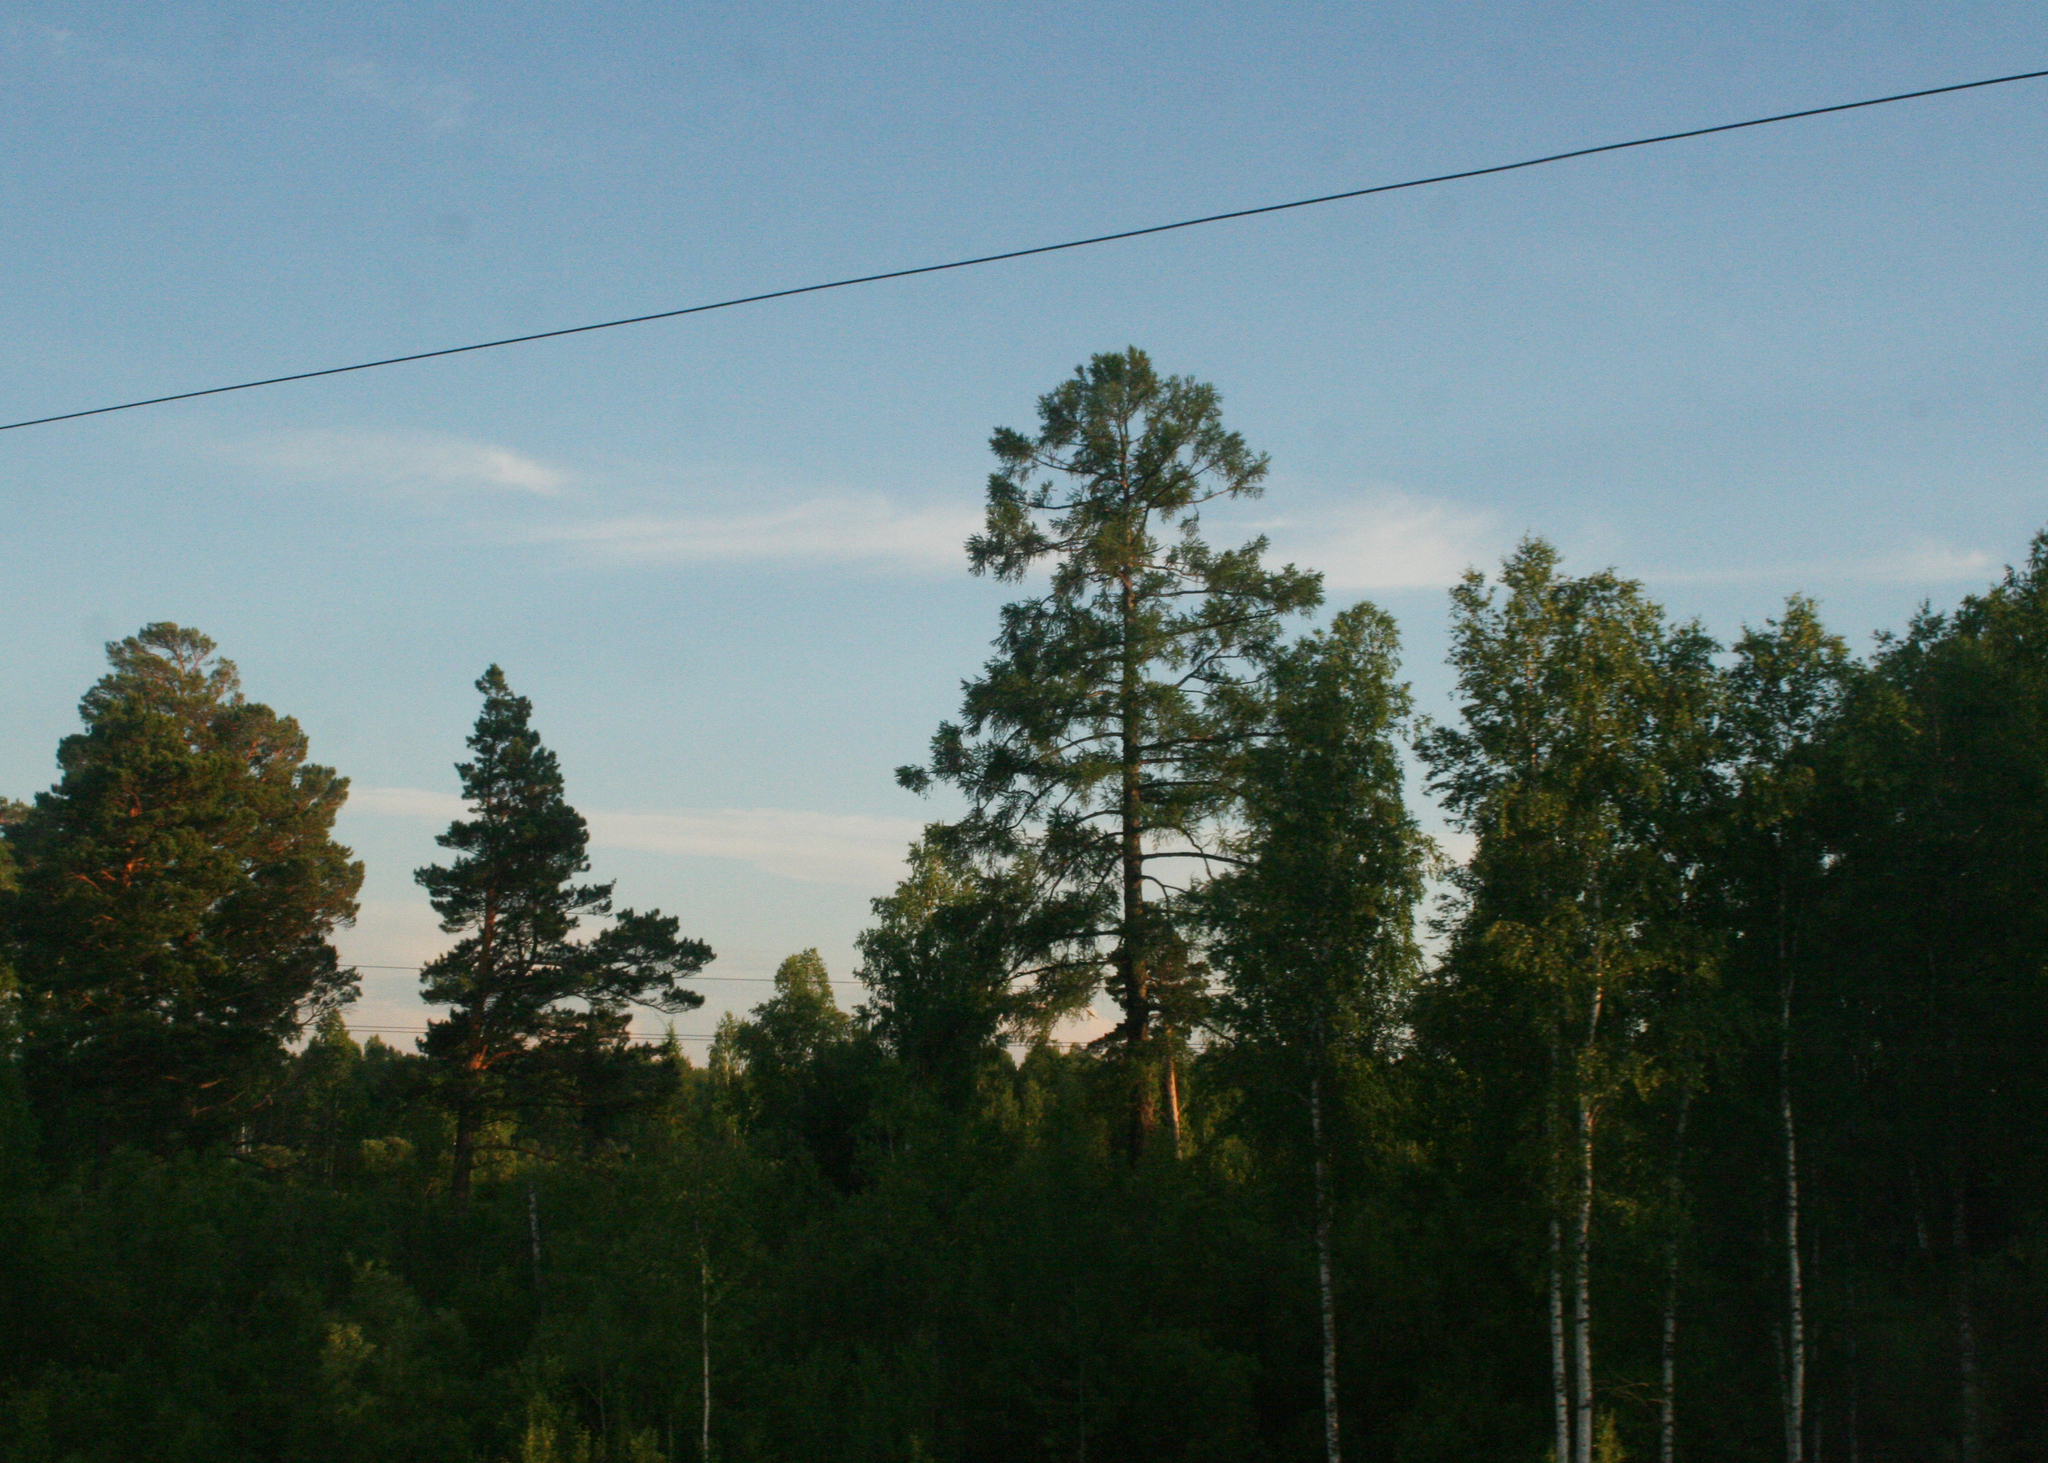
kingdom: Plantae
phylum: Tracheophyta
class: Pinopsida
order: Pinales
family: Pinaceae
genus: Pinus
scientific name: Pinus sylvestris
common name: Scots pine
